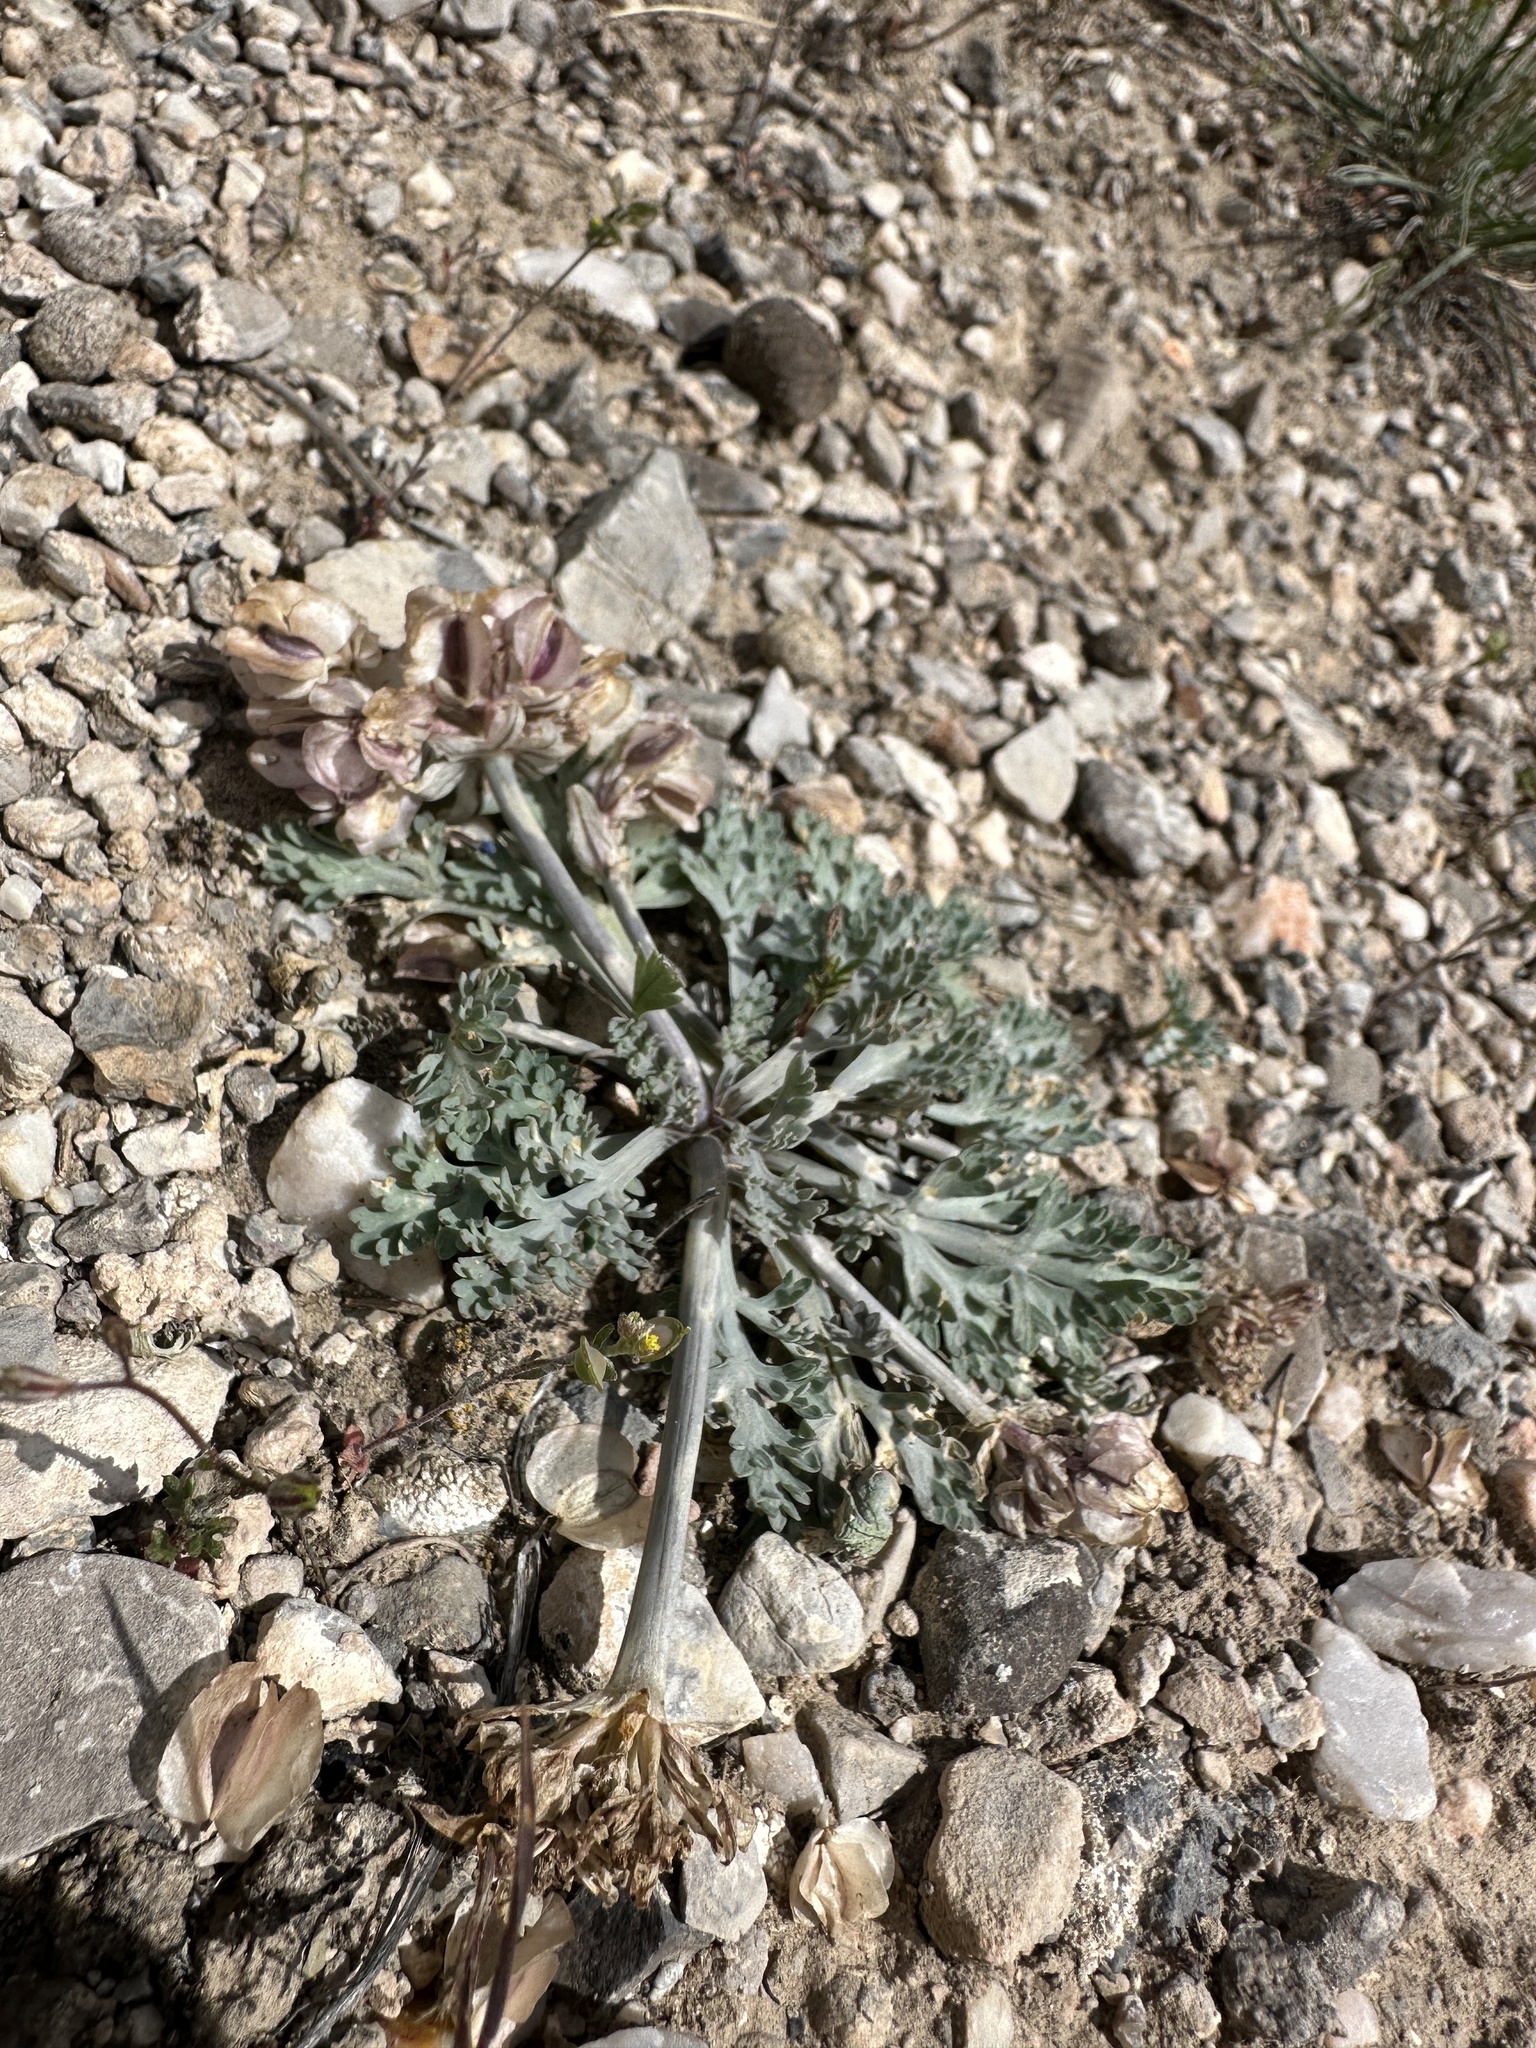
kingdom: Plantae
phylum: Tracheophyta
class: Magnoliopsida
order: Apiales
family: Apiaceae
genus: Vesper
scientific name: Vesper purpurascens
